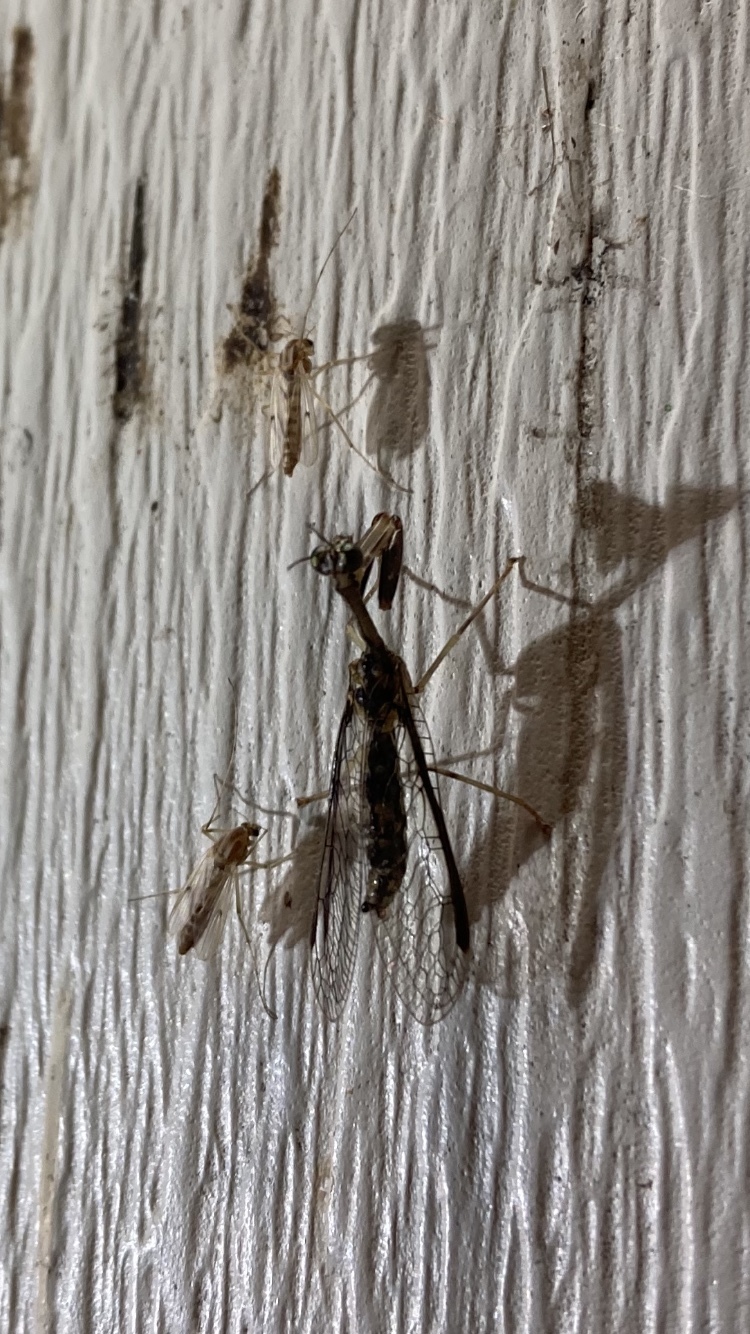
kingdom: Animalia
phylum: Arthropoda
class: Insecta
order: Neuroptera
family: Mantispidae
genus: Dicromantispa
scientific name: Dicromantispa sayi
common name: Say's mantidfly
